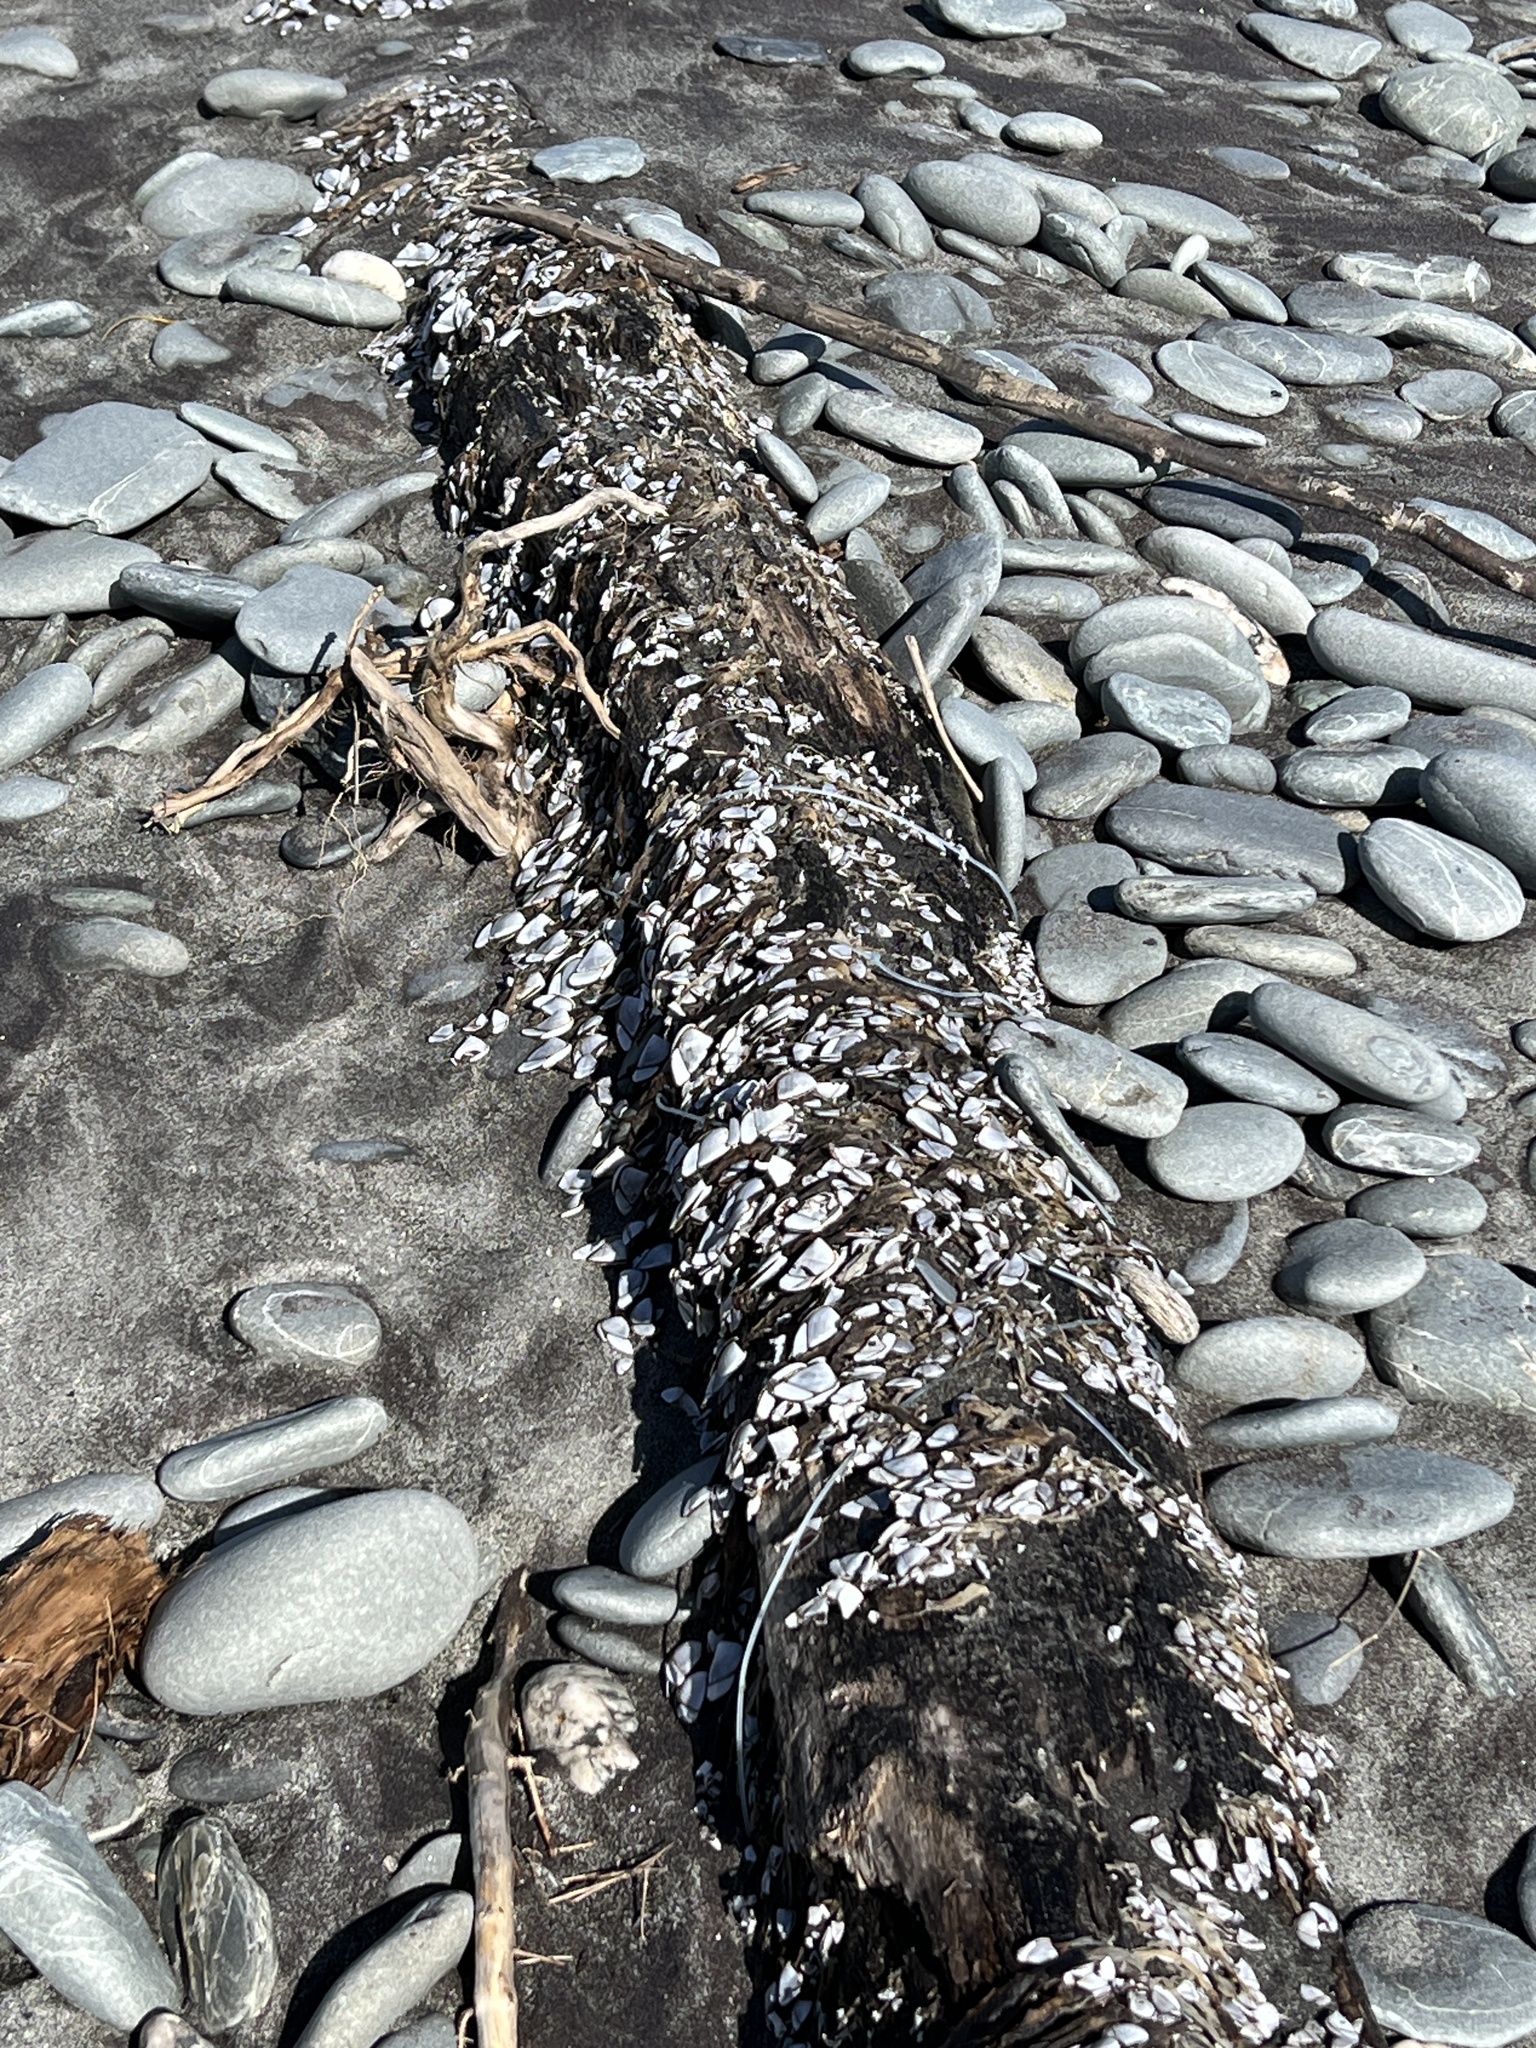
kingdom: Animalia
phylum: Arthropoda
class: Maxillopoda
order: Pedunculata
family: Lepadidae
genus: Lepas
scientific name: Lepas testudinata
